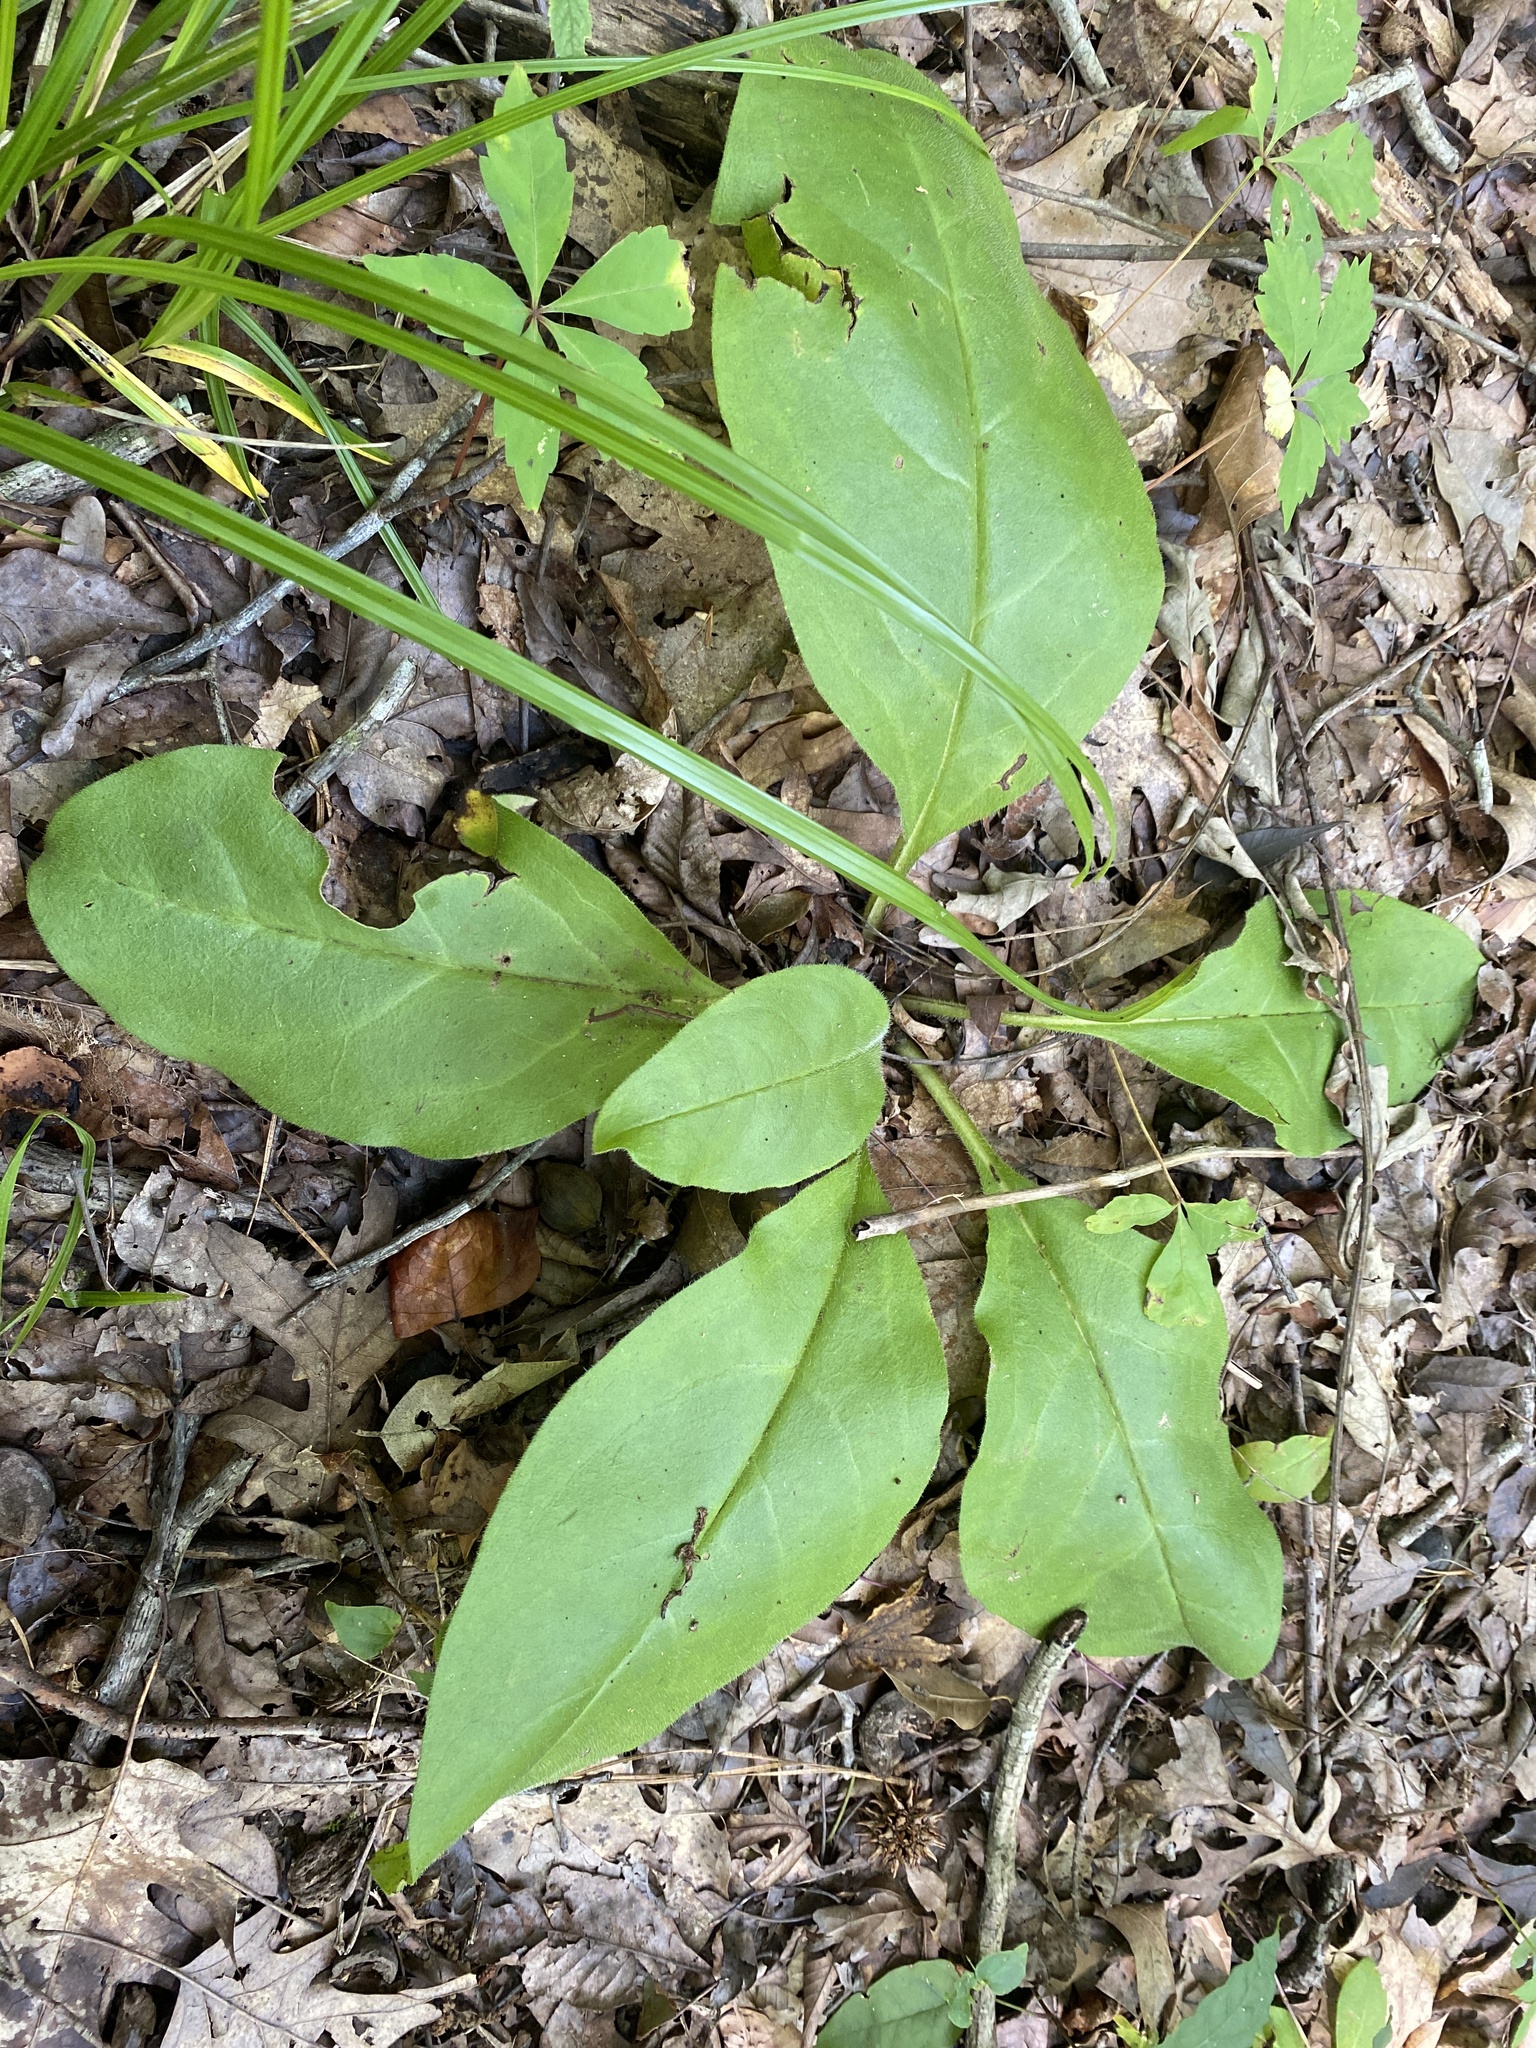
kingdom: Plantae
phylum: Tracheophyta
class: Magnoliopsida
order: Boraginales
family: Boraginaceae
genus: Andersonglossum
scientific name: Andersonglossum virginianum
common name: Wild comfrey
